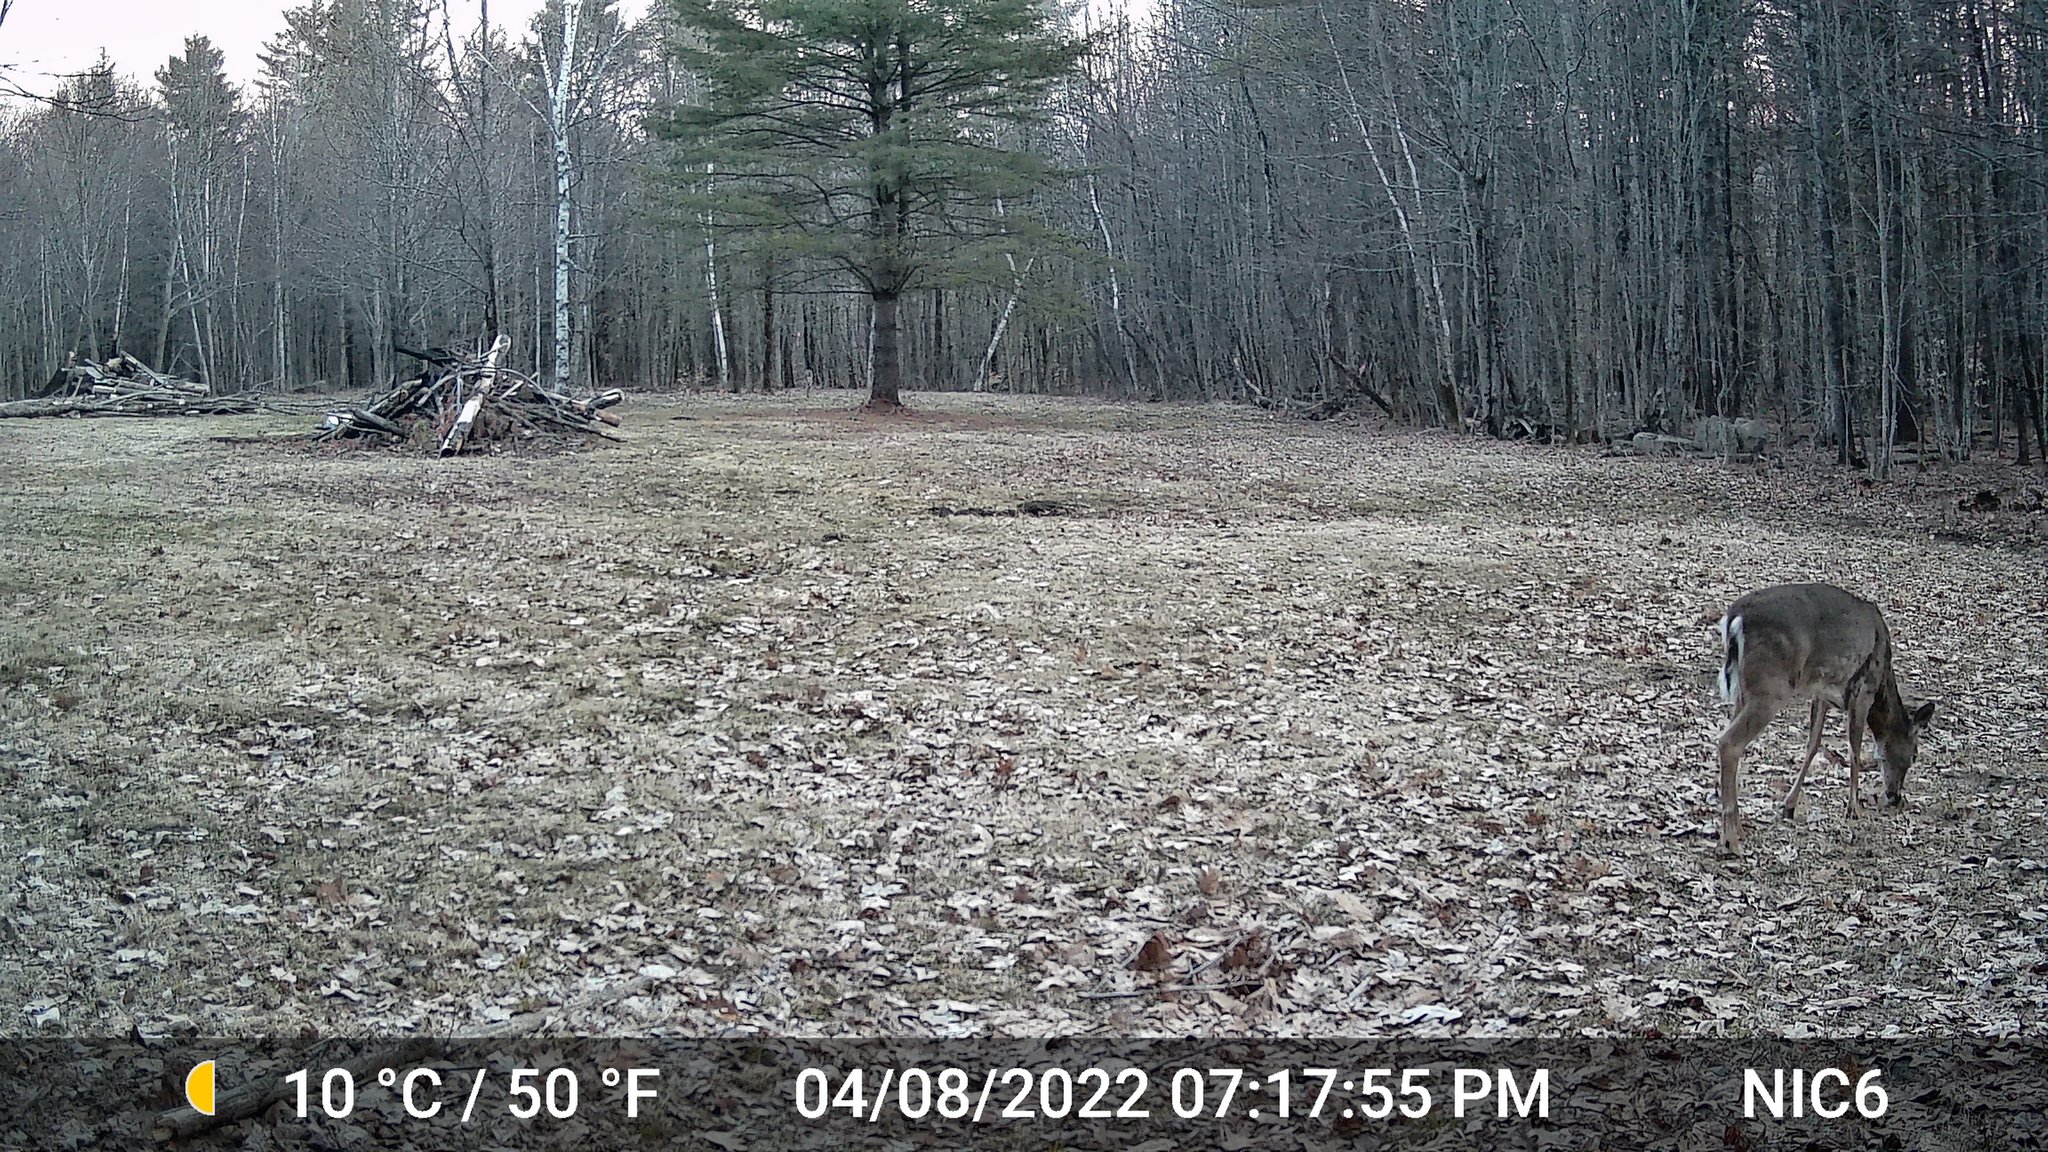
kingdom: Animalia
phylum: Chordata
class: Mammalia
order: Artiodactyla
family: Cervidae
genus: Odocoileus
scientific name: Odocoileus virginianus
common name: White-tailed deer
